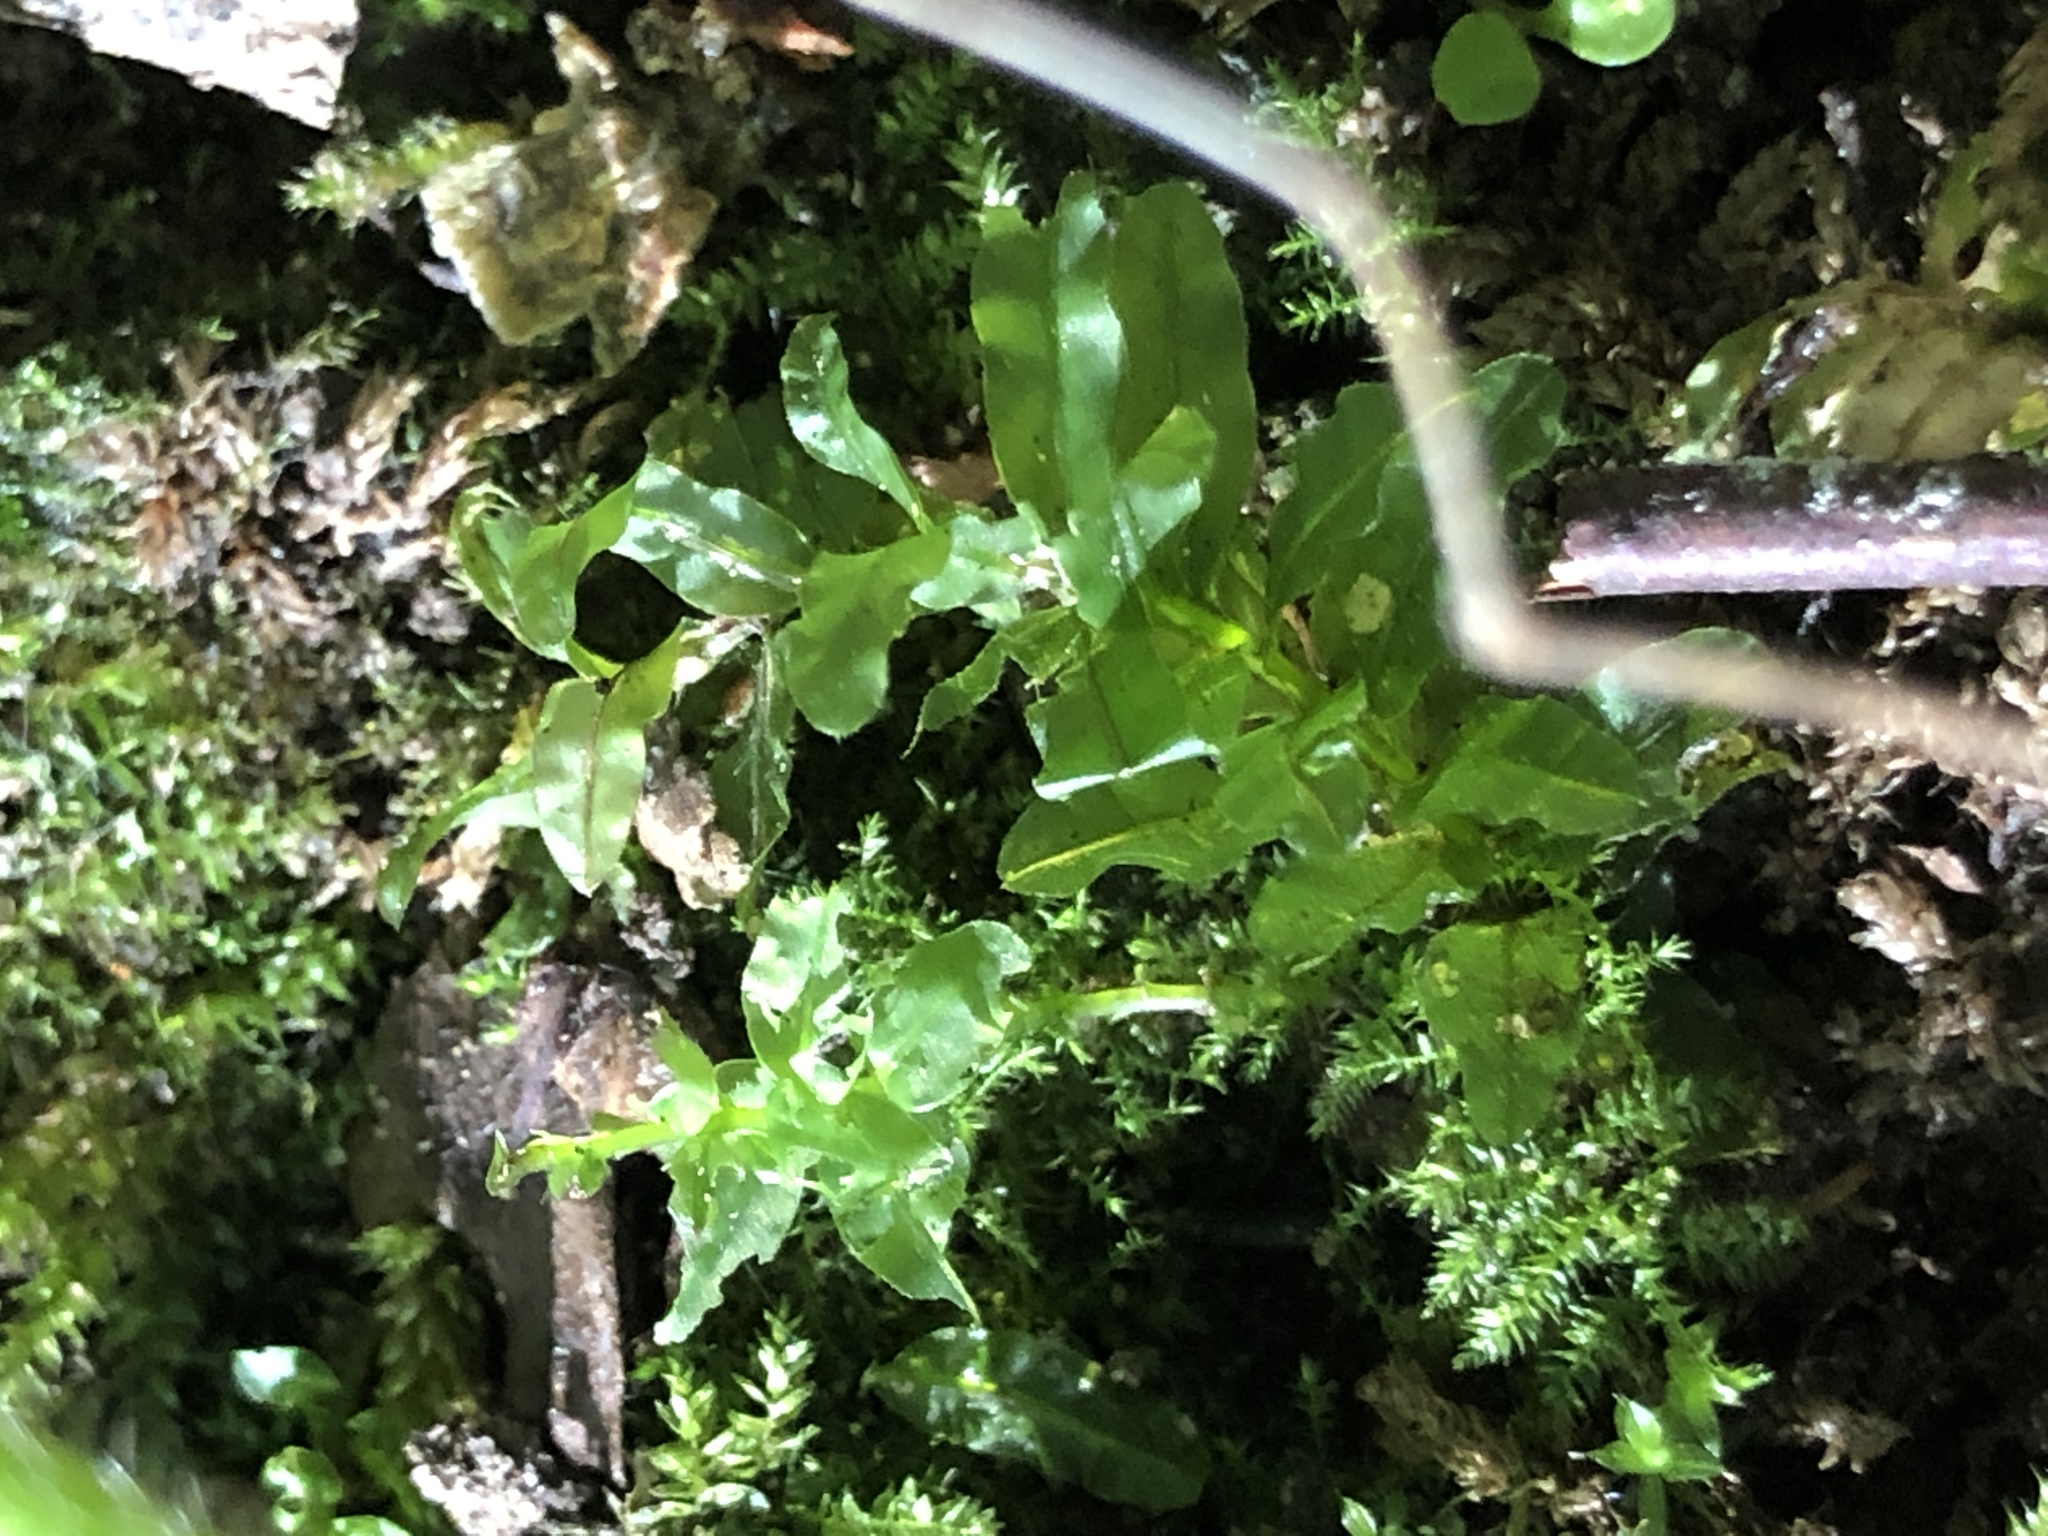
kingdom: Plantae
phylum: Bryophyta
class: Bryopsida
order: Bryales
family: Mniaceae
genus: Plagiomnium
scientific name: Plagiomnium undulatum
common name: Hart's-tongue thyme-moss
